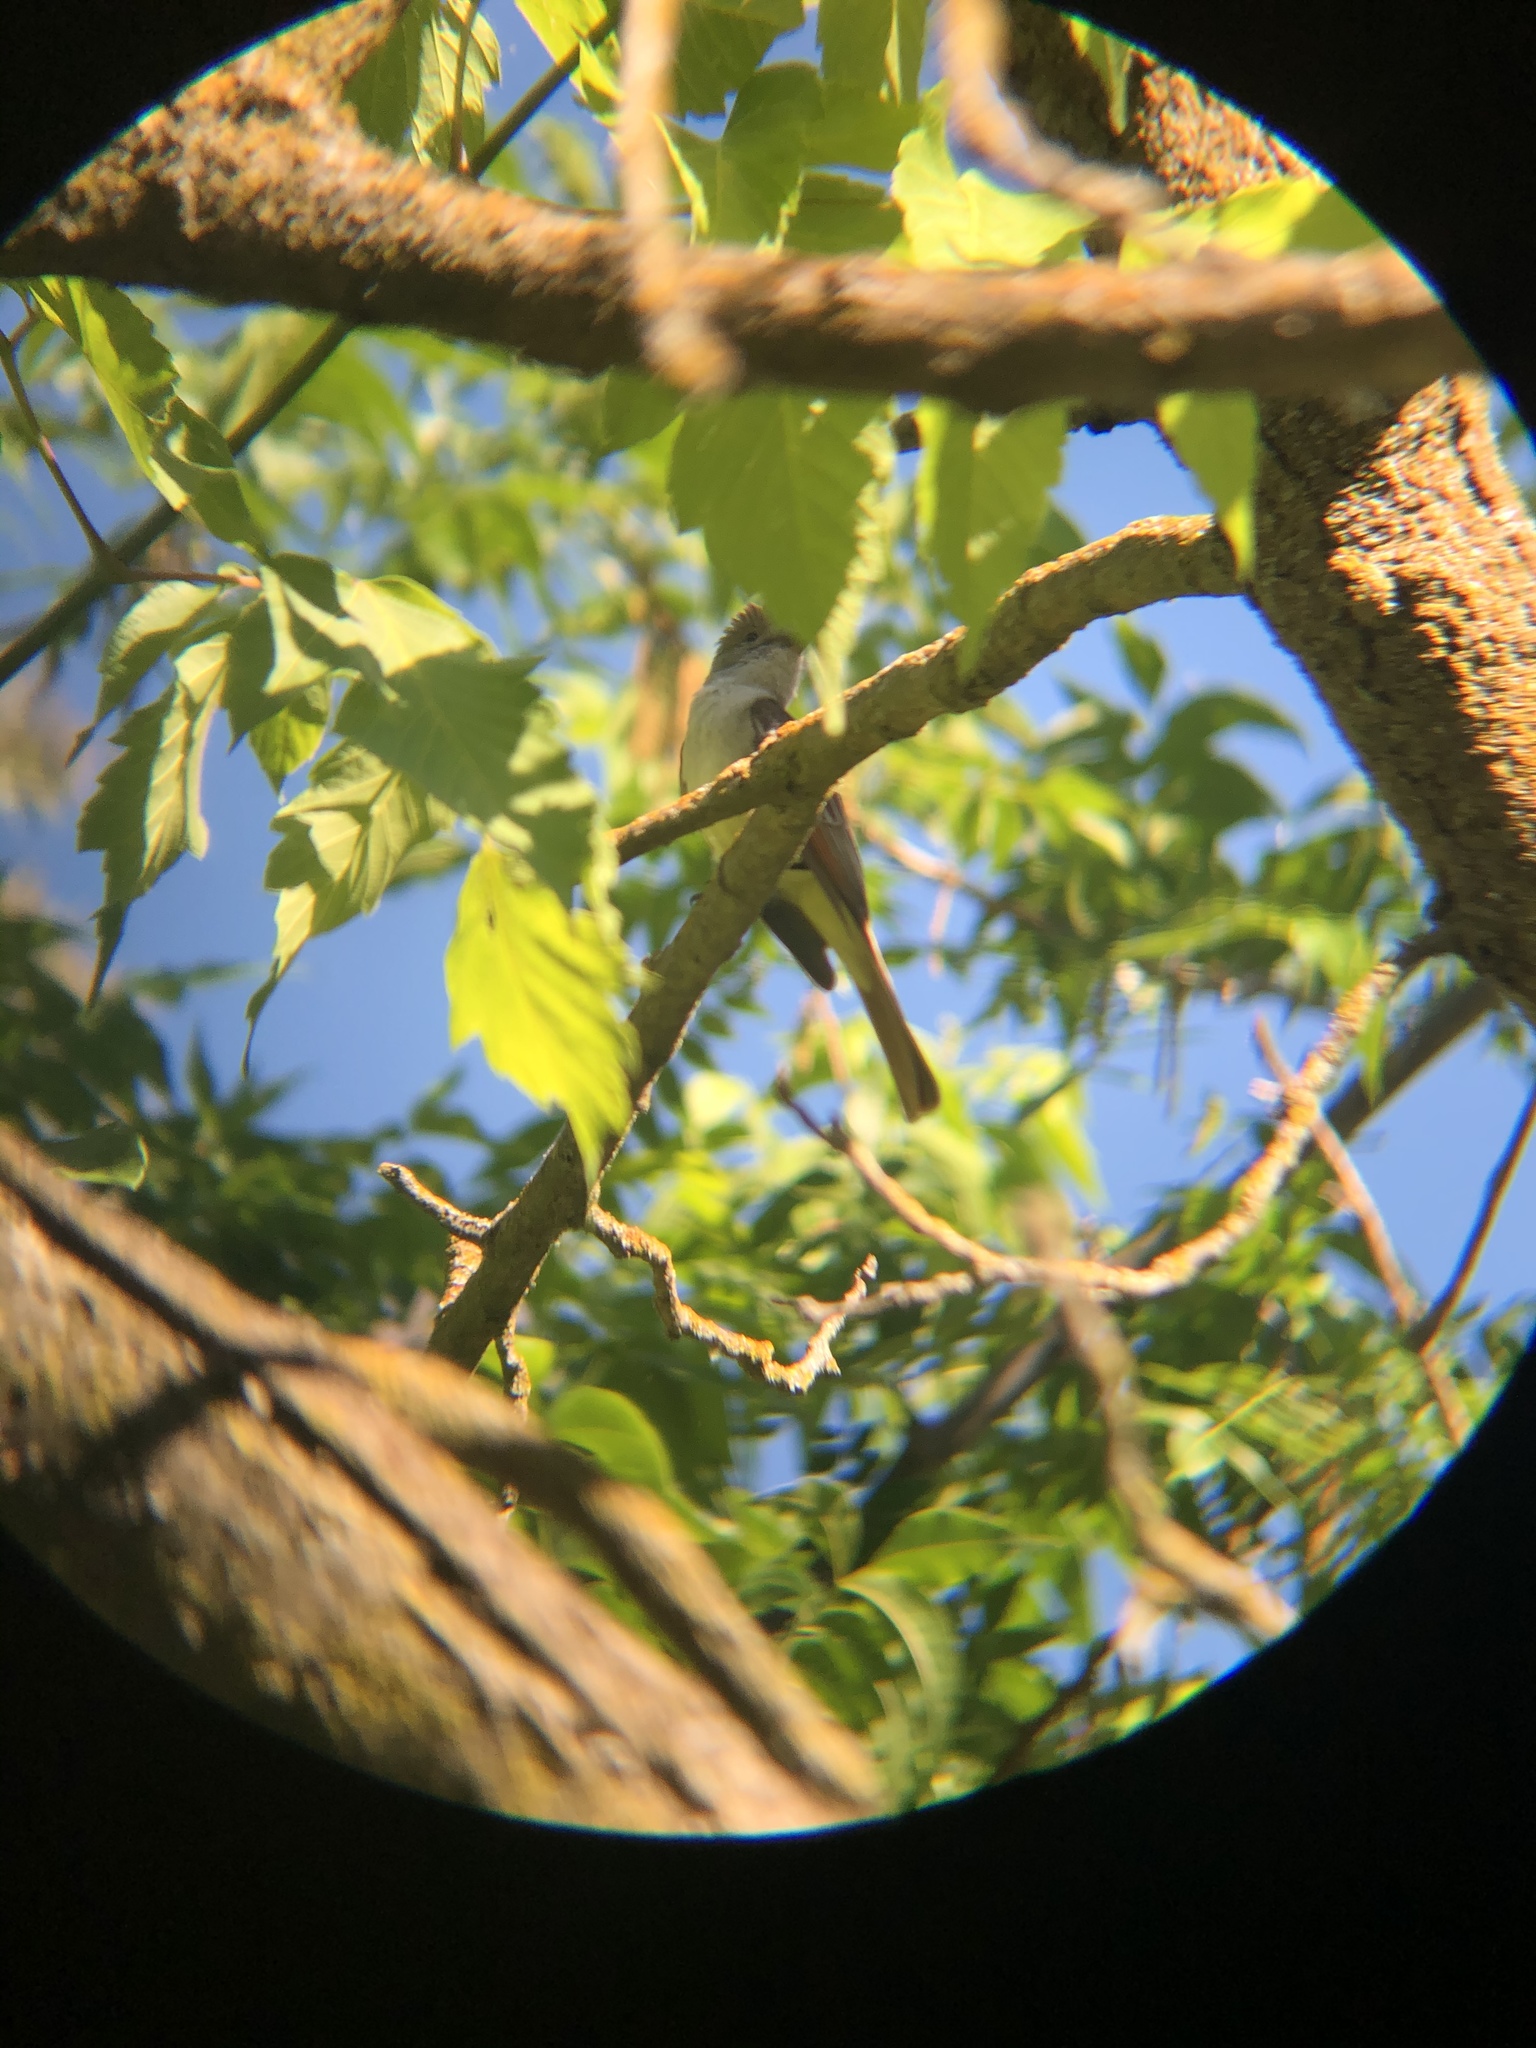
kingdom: Animalia
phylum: Chordata
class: Aves
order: Passeriformes
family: Tyrannidae
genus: Myiarchus
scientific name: Myiarchus cinerascens
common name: Ash-throated flycatcher
